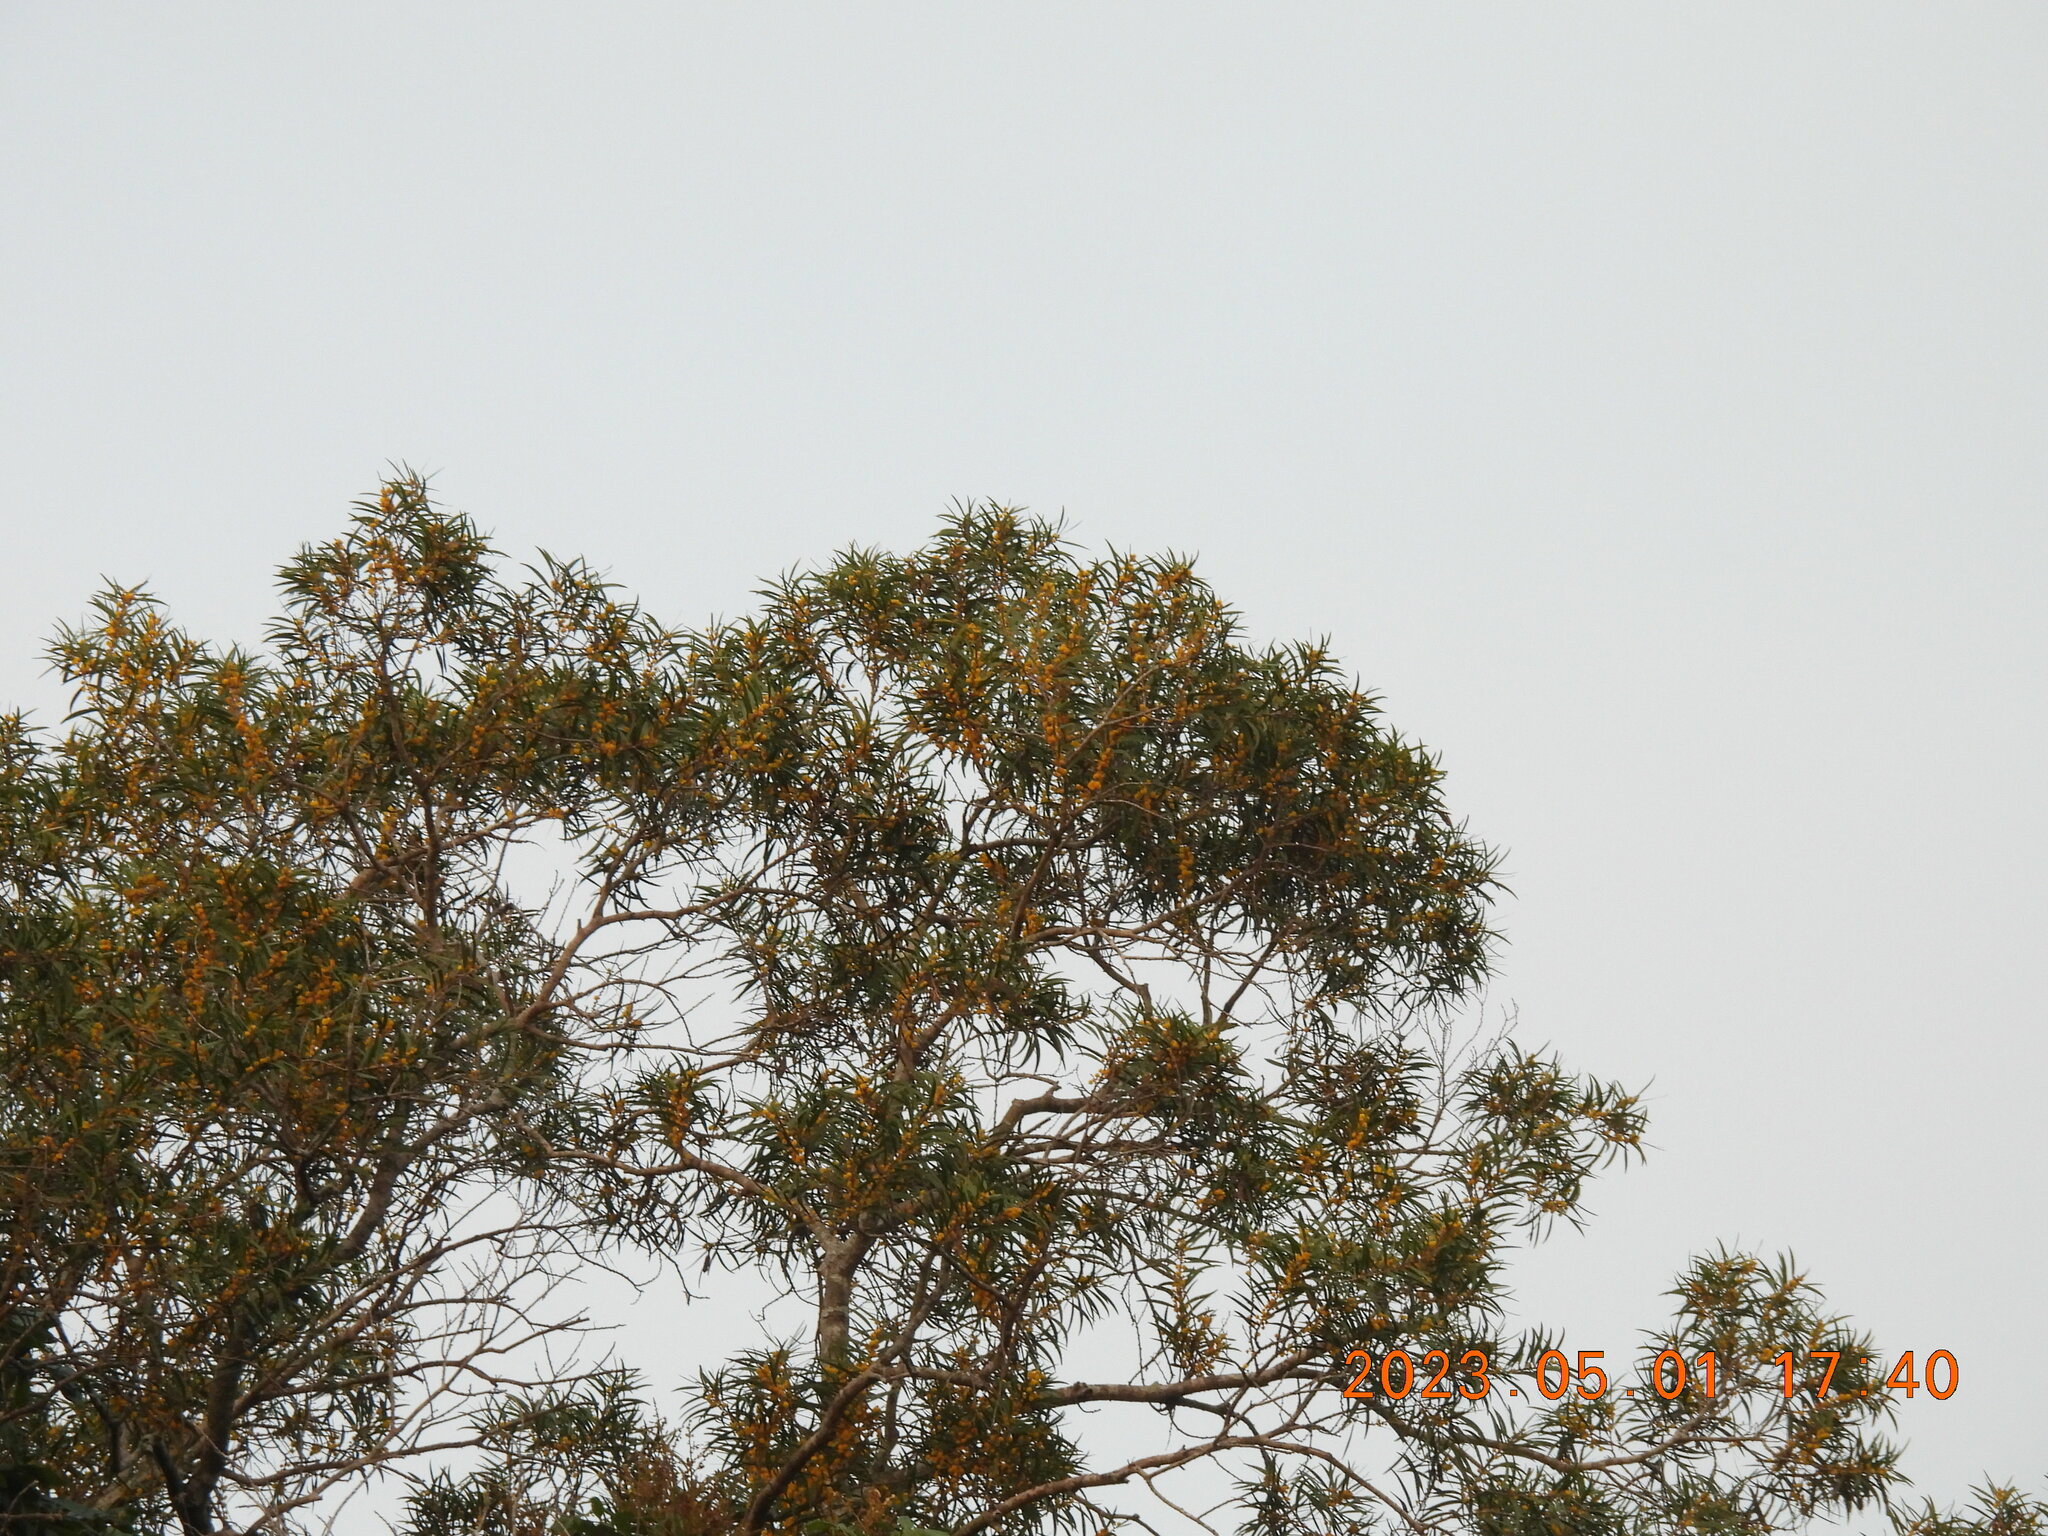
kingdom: Plantae
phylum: Tracheophyta
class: Magnoliopsida
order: Fabales
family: Fabaceae
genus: Acacia
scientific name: Acacia confusa
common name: Formosan koa
